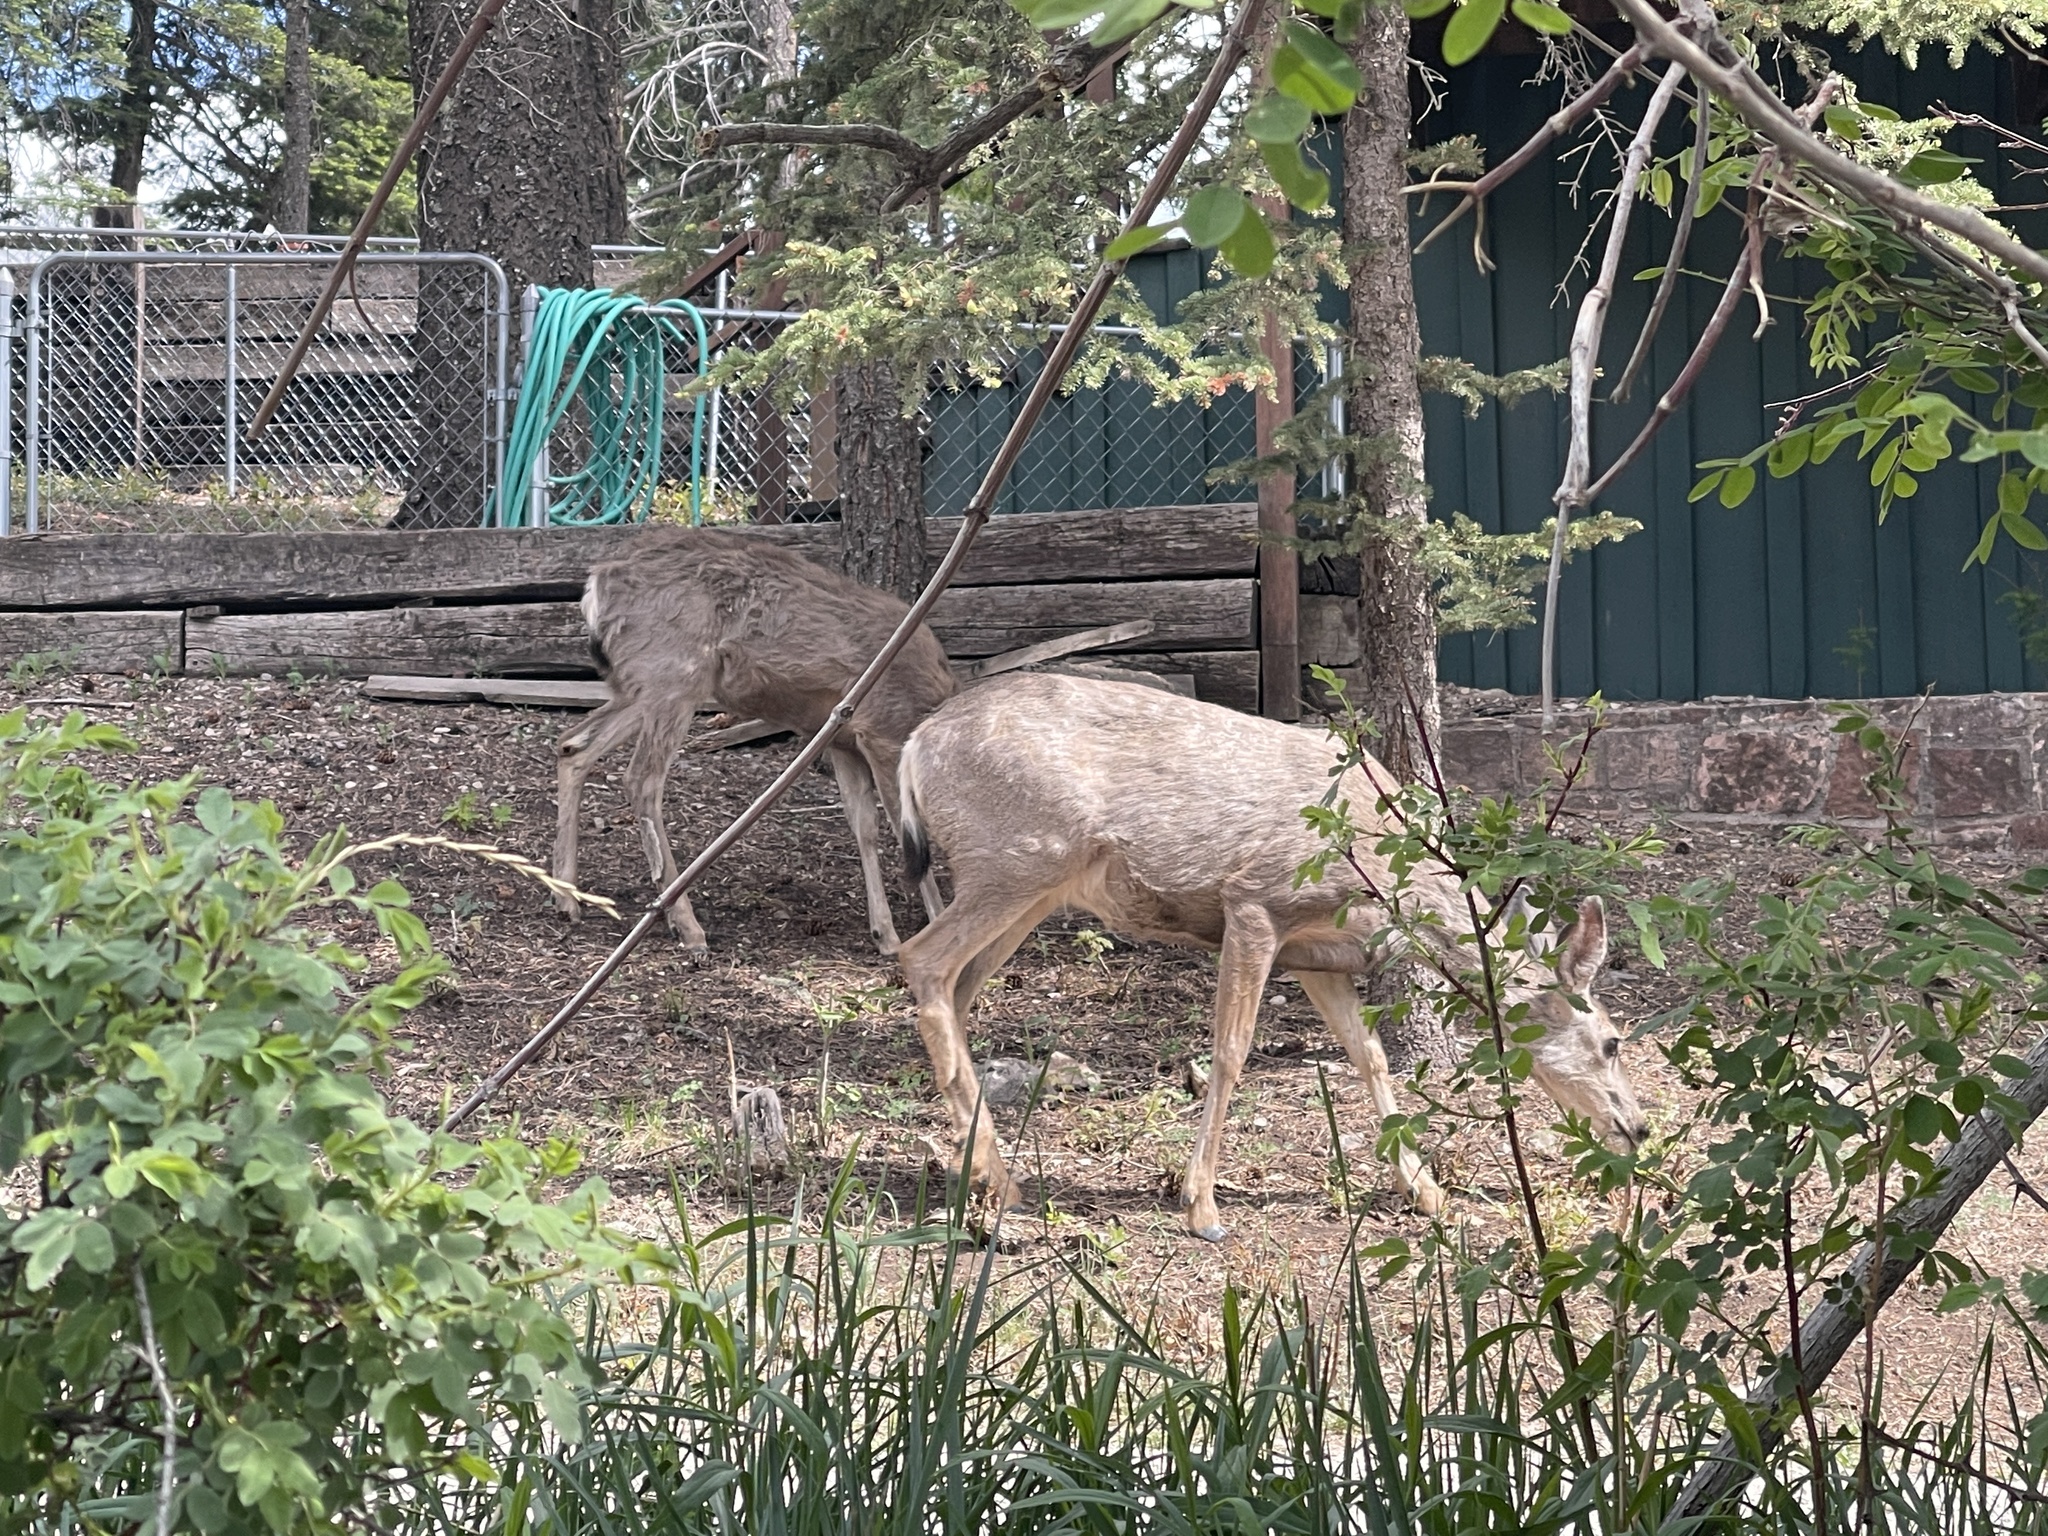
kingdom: Animalia
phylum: Chordata
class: Mammalia
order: Artiodactyla
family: Cervidae
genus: Odocoileus
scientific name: Odocoileus hemionus
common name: Mule deer
